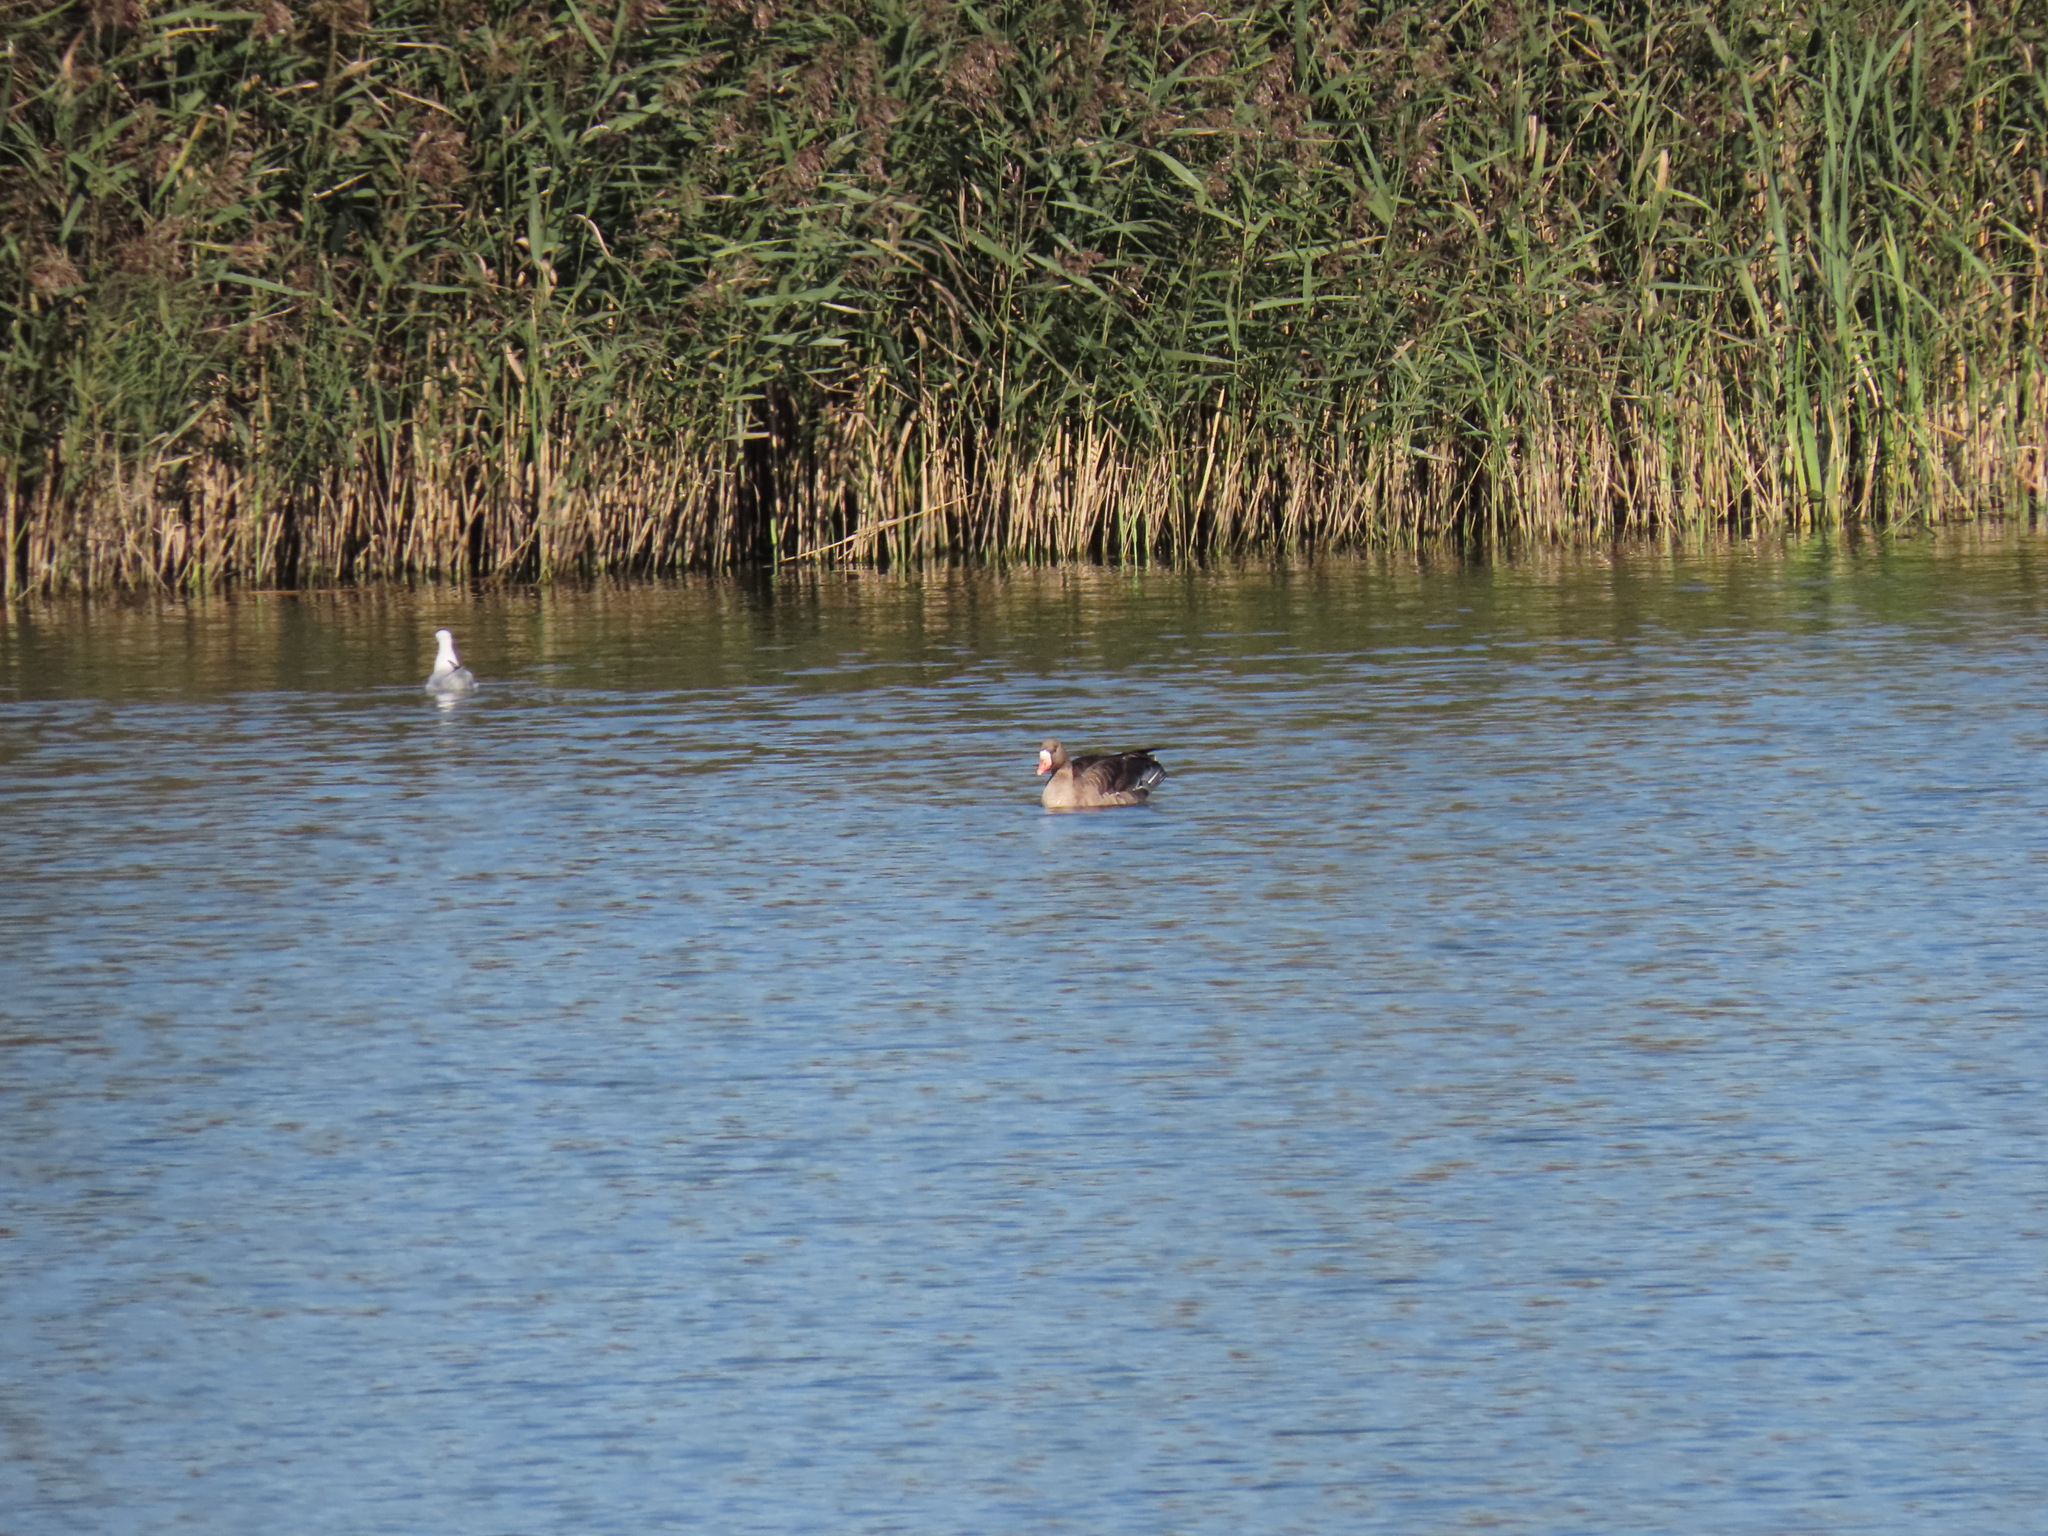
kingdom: Animalia
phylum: Chordata
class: Aves
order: Anseriformes
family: Anatidae
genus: Anser
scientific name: Anser albifrons
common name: Greater white-fronted goose
